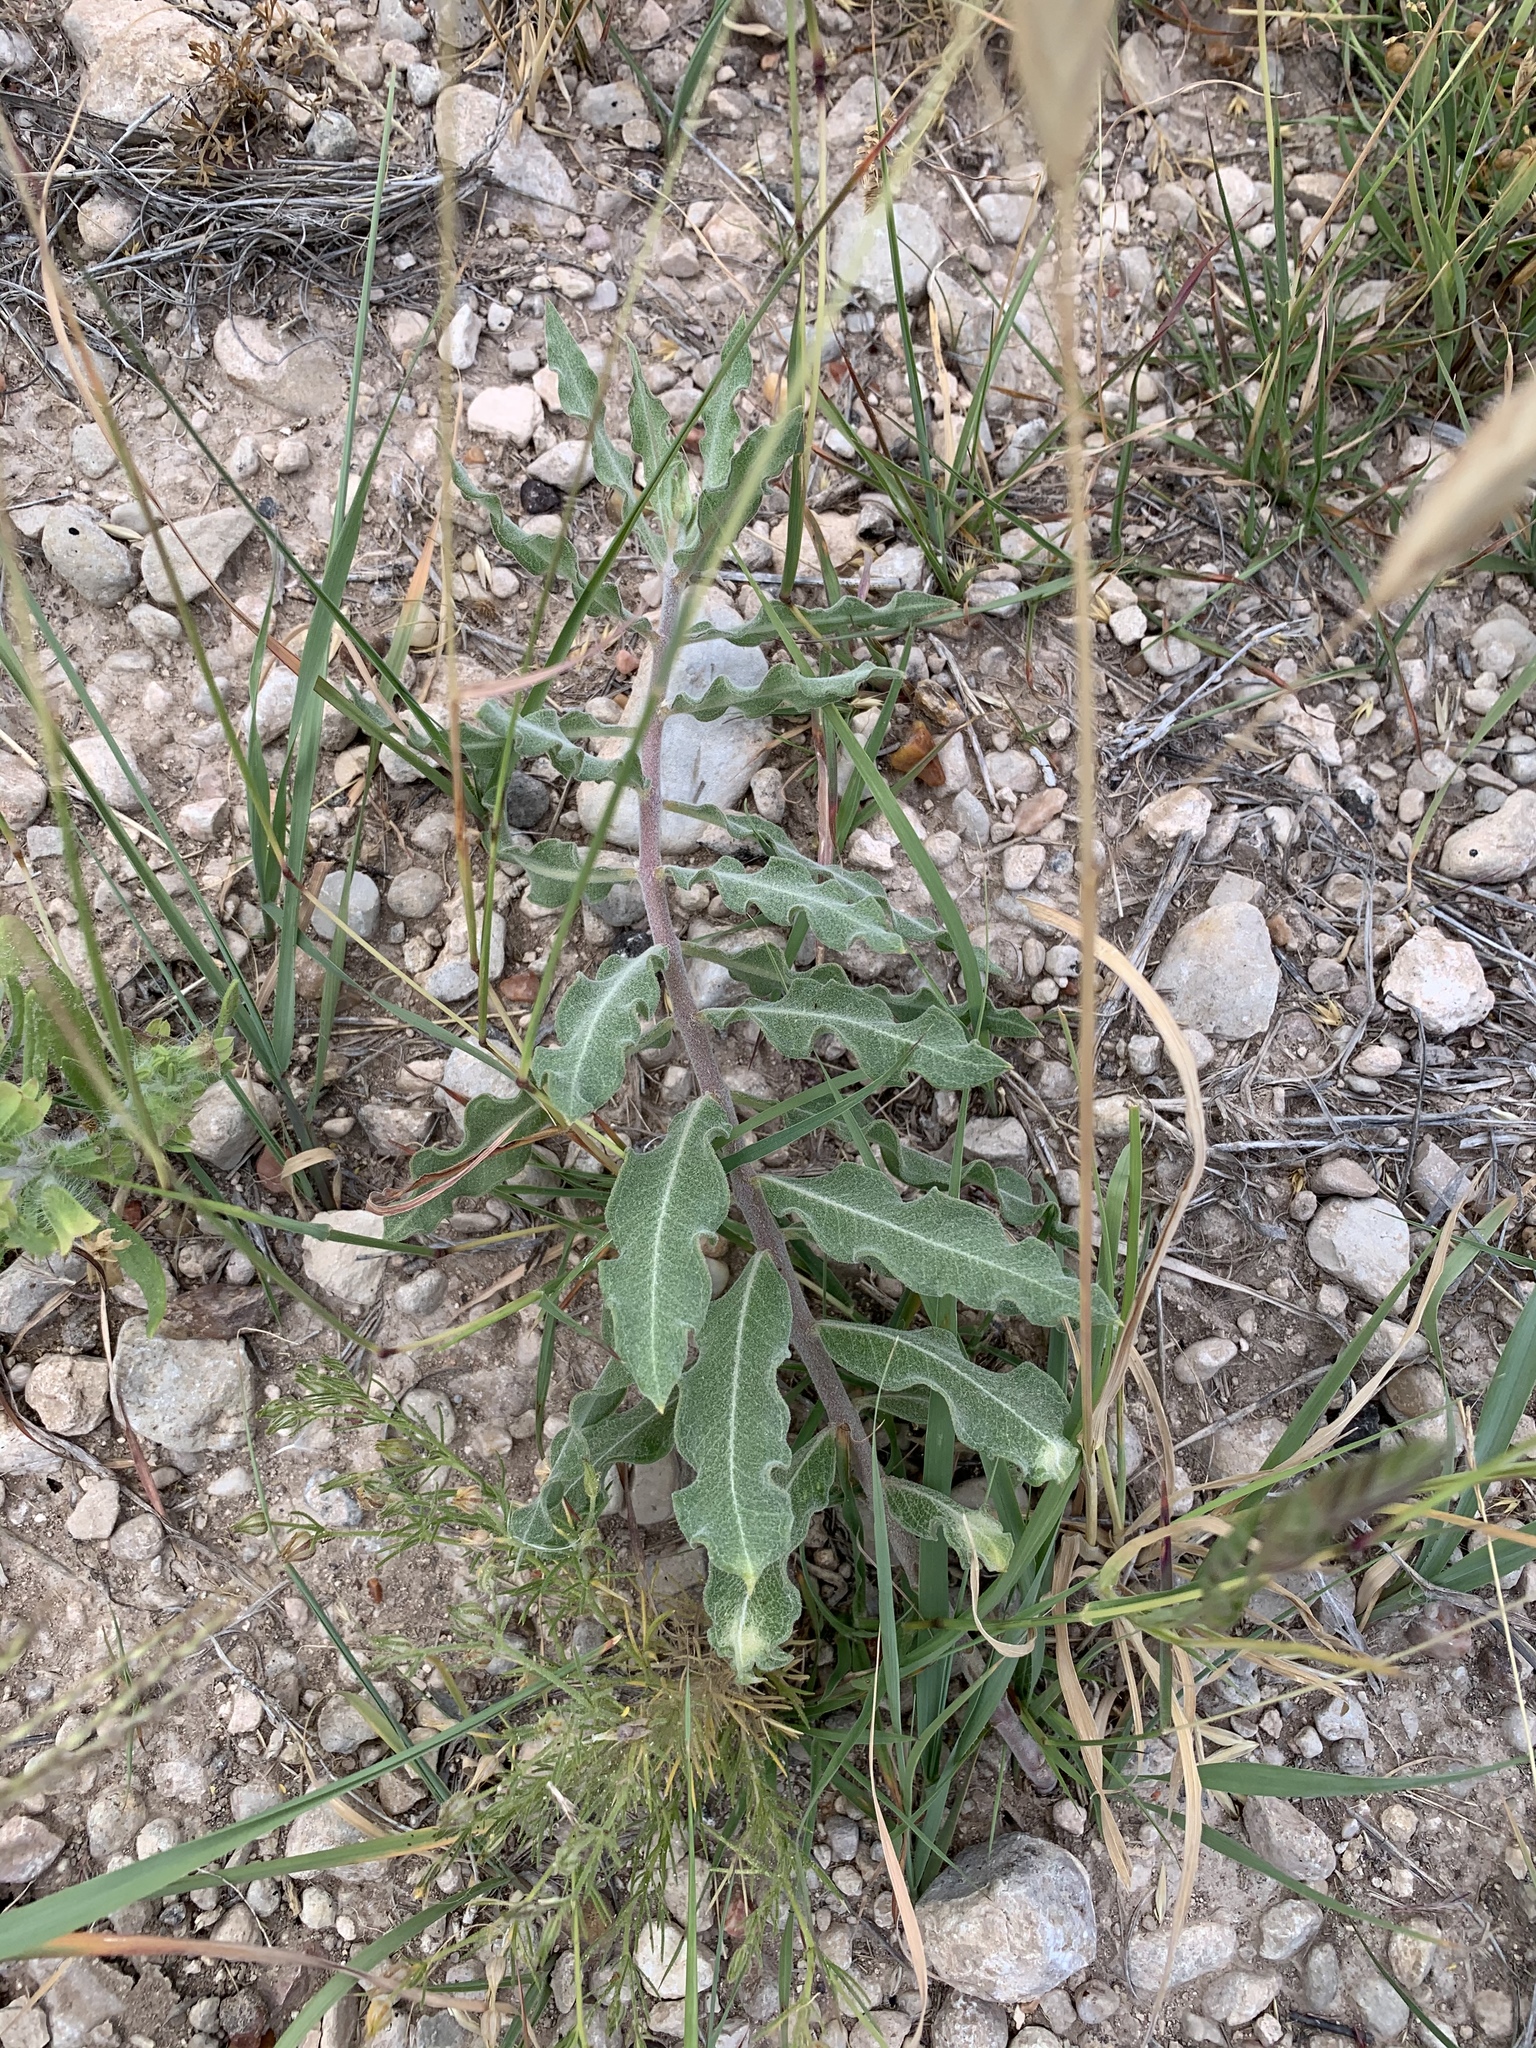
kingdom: Plantae
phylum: Tracheophyta
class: Magnoliopsida
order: Gentianales
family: Apocynaceae
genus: Asclepias
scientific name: Asclepias viridiflora
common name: Green comet milkweed
